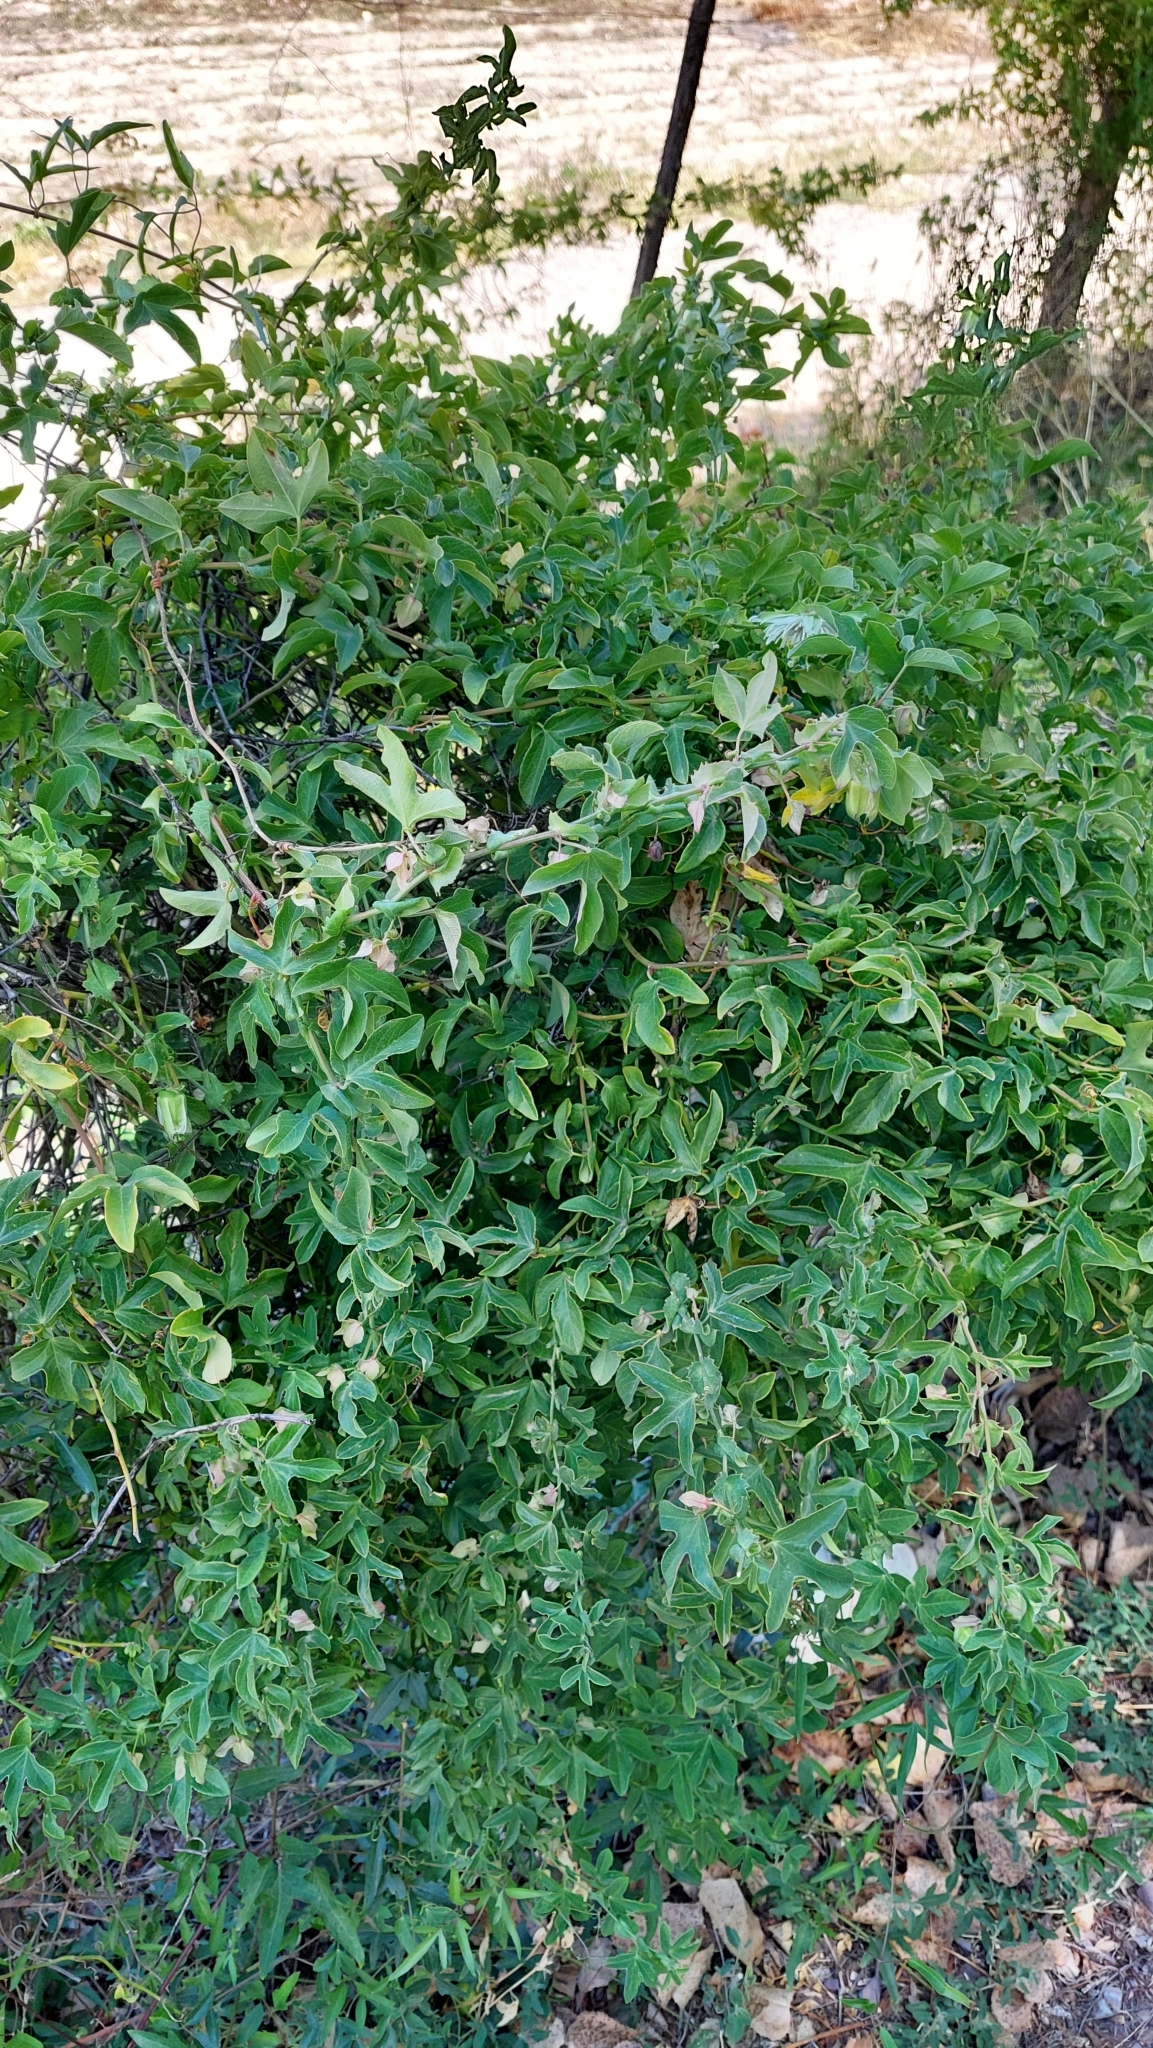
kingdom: Plantae
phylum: Tracheophyta
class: Magnoliopsida
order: Malpighiales
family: Passifloraceae
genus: Passiflora
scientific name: Passiflora tucumanensis
